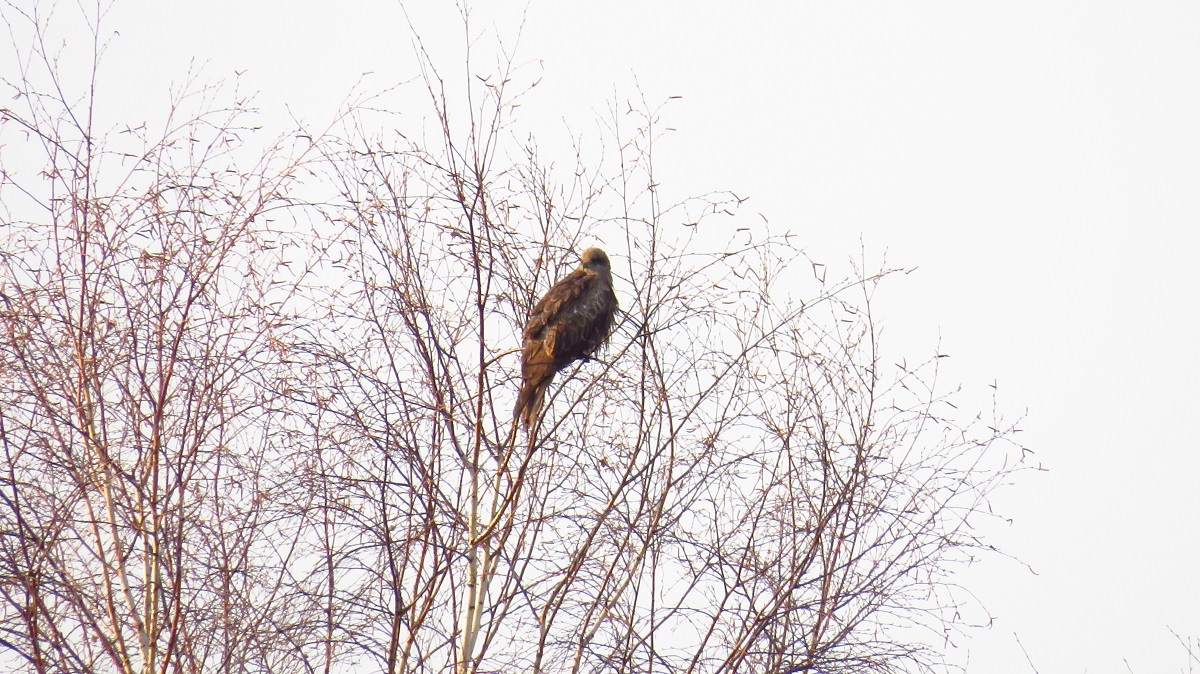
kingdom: Animalia
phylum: Chordata
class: Aves
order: Accipitriformes
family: Accipitridae
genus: Milvus
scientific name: Milvus migrans
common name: Black kite
